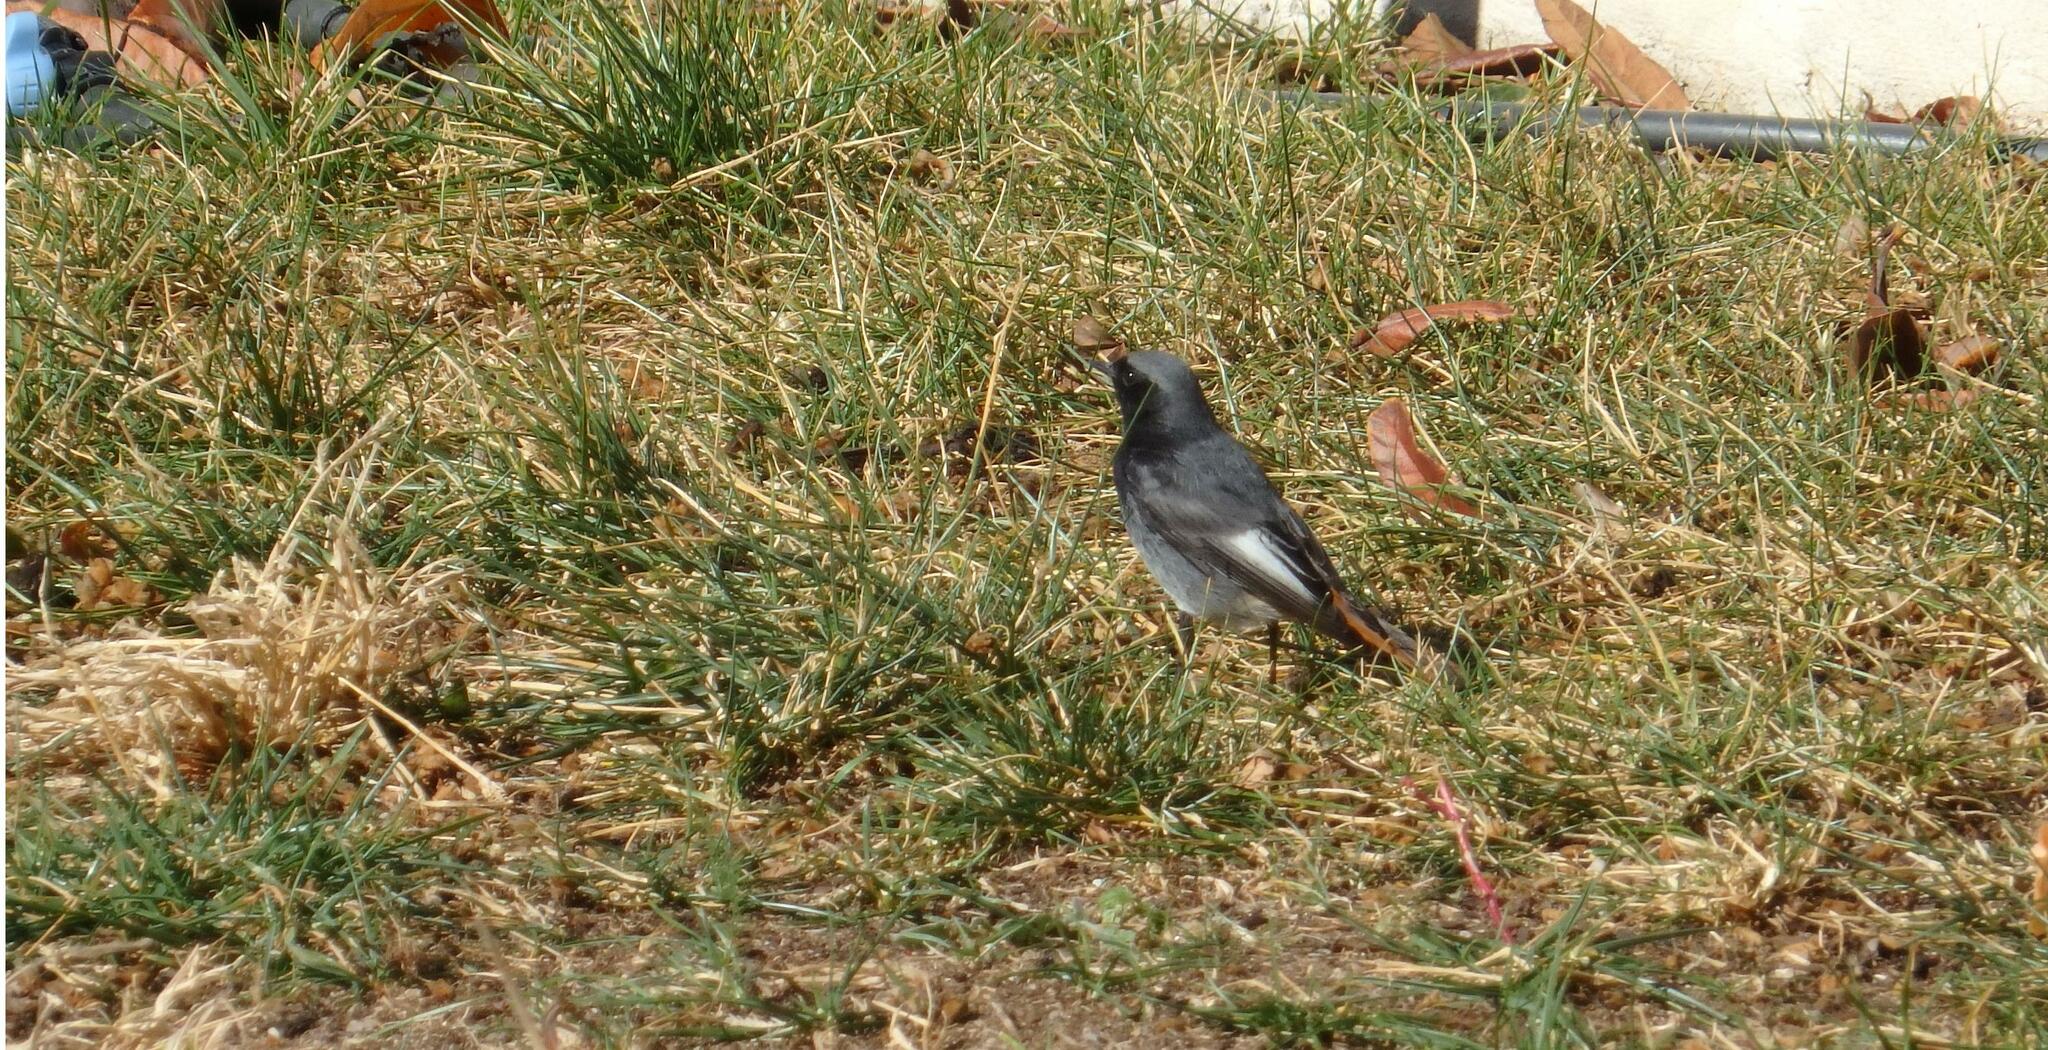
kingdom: Animalia
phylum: Chordata
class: Aves
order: Passeriformes
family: Muscicapidae
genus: Phoenicurus
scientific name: Phoenicurus ochruros
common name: Black redstart
